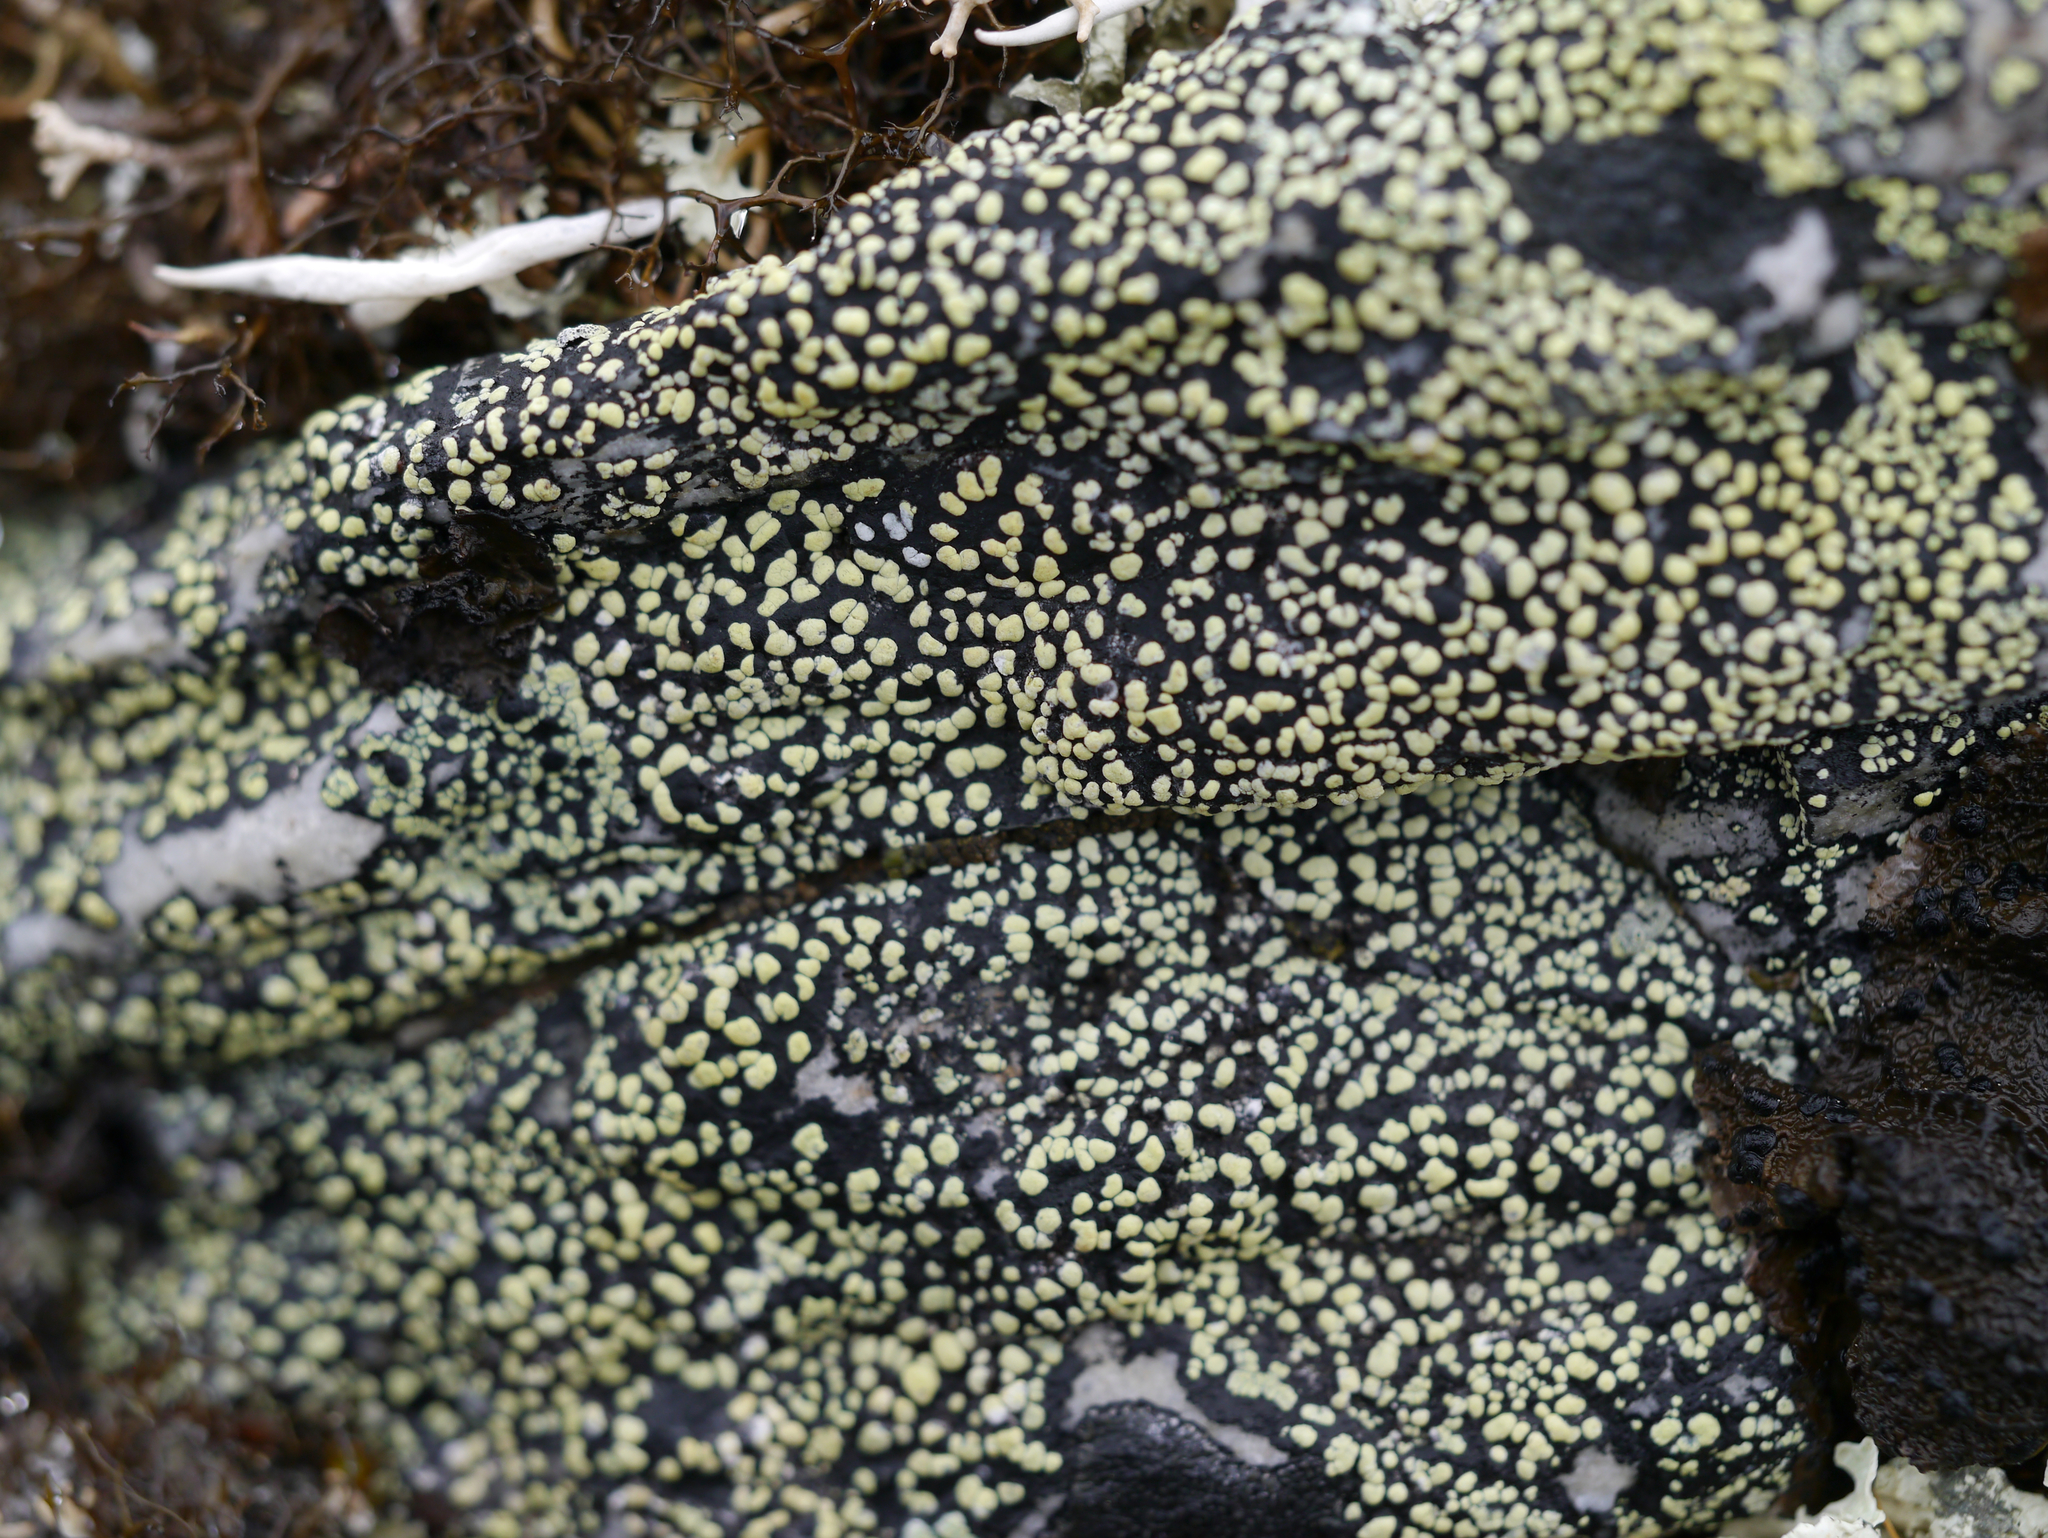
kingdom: Fungi
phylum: Ascomycota
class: Lecanoromycetes
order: Rhizocarpales
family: Rhizocarpaceae
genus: Rhizocarpon
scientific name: Rhizocarpon geographicum
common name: Yellow map lichen
